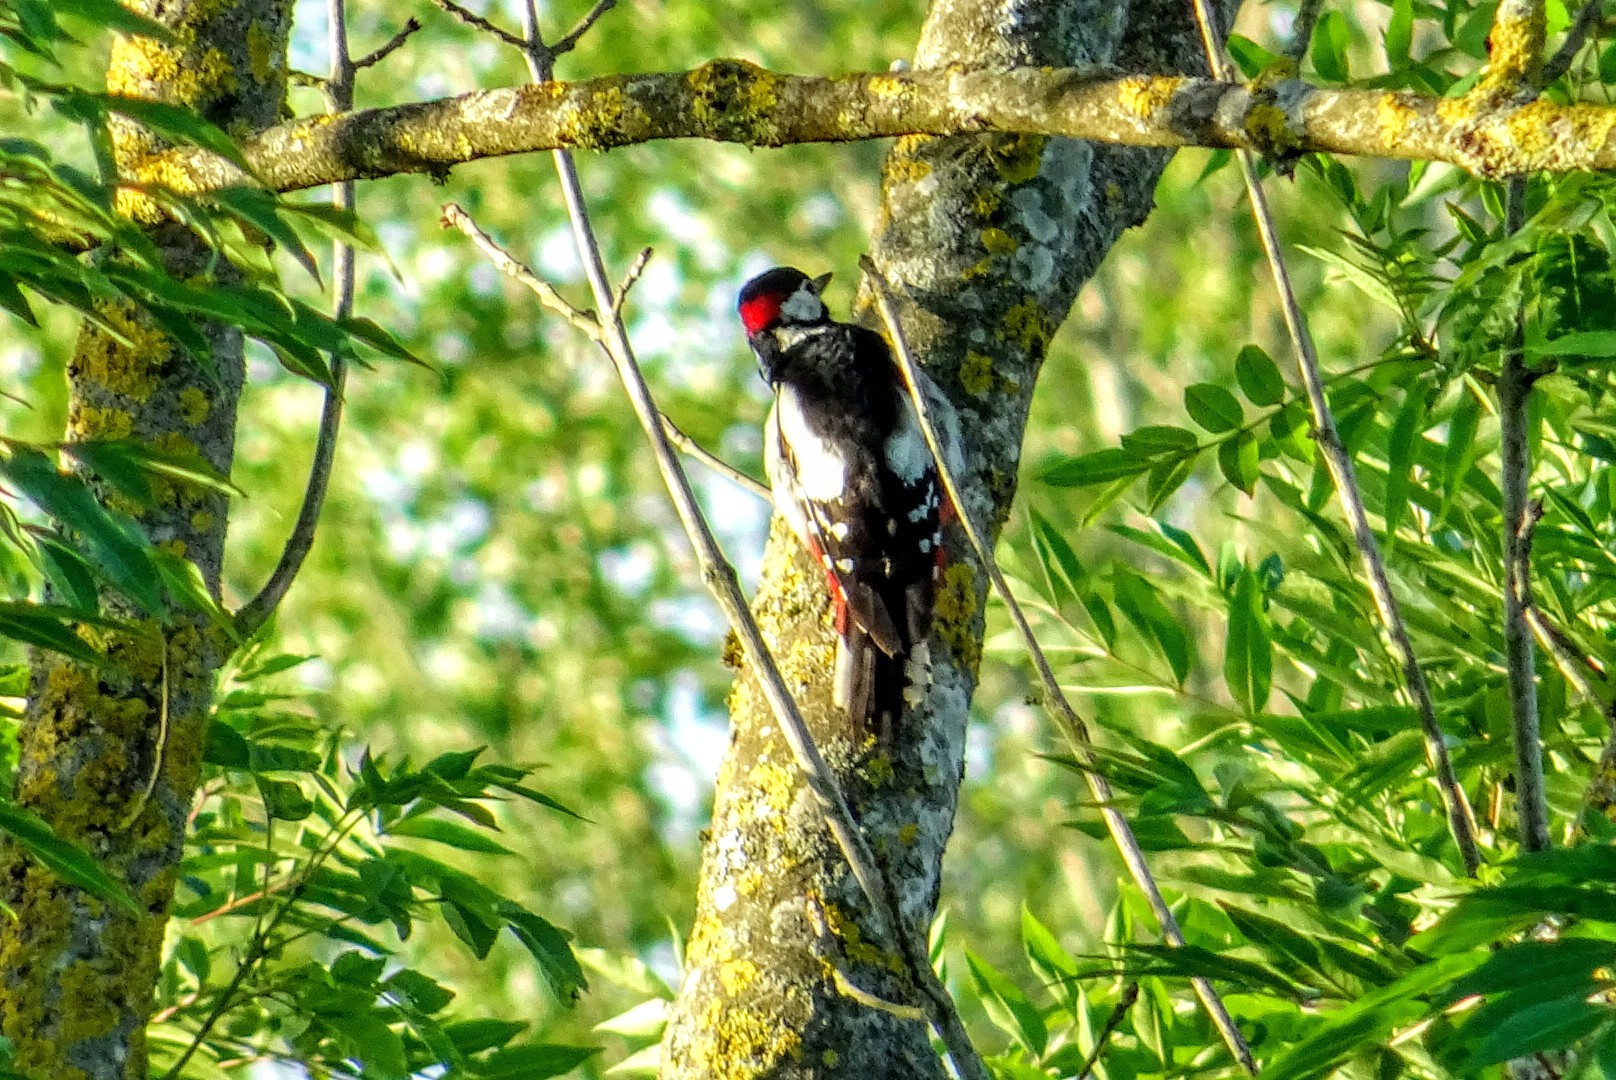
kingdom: Animalia
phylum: Chordata
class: Aves
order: Piciformes
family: Picidae
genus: Dendrocopos
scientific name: Dendrocopos major
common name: Great spotted woodpecker
